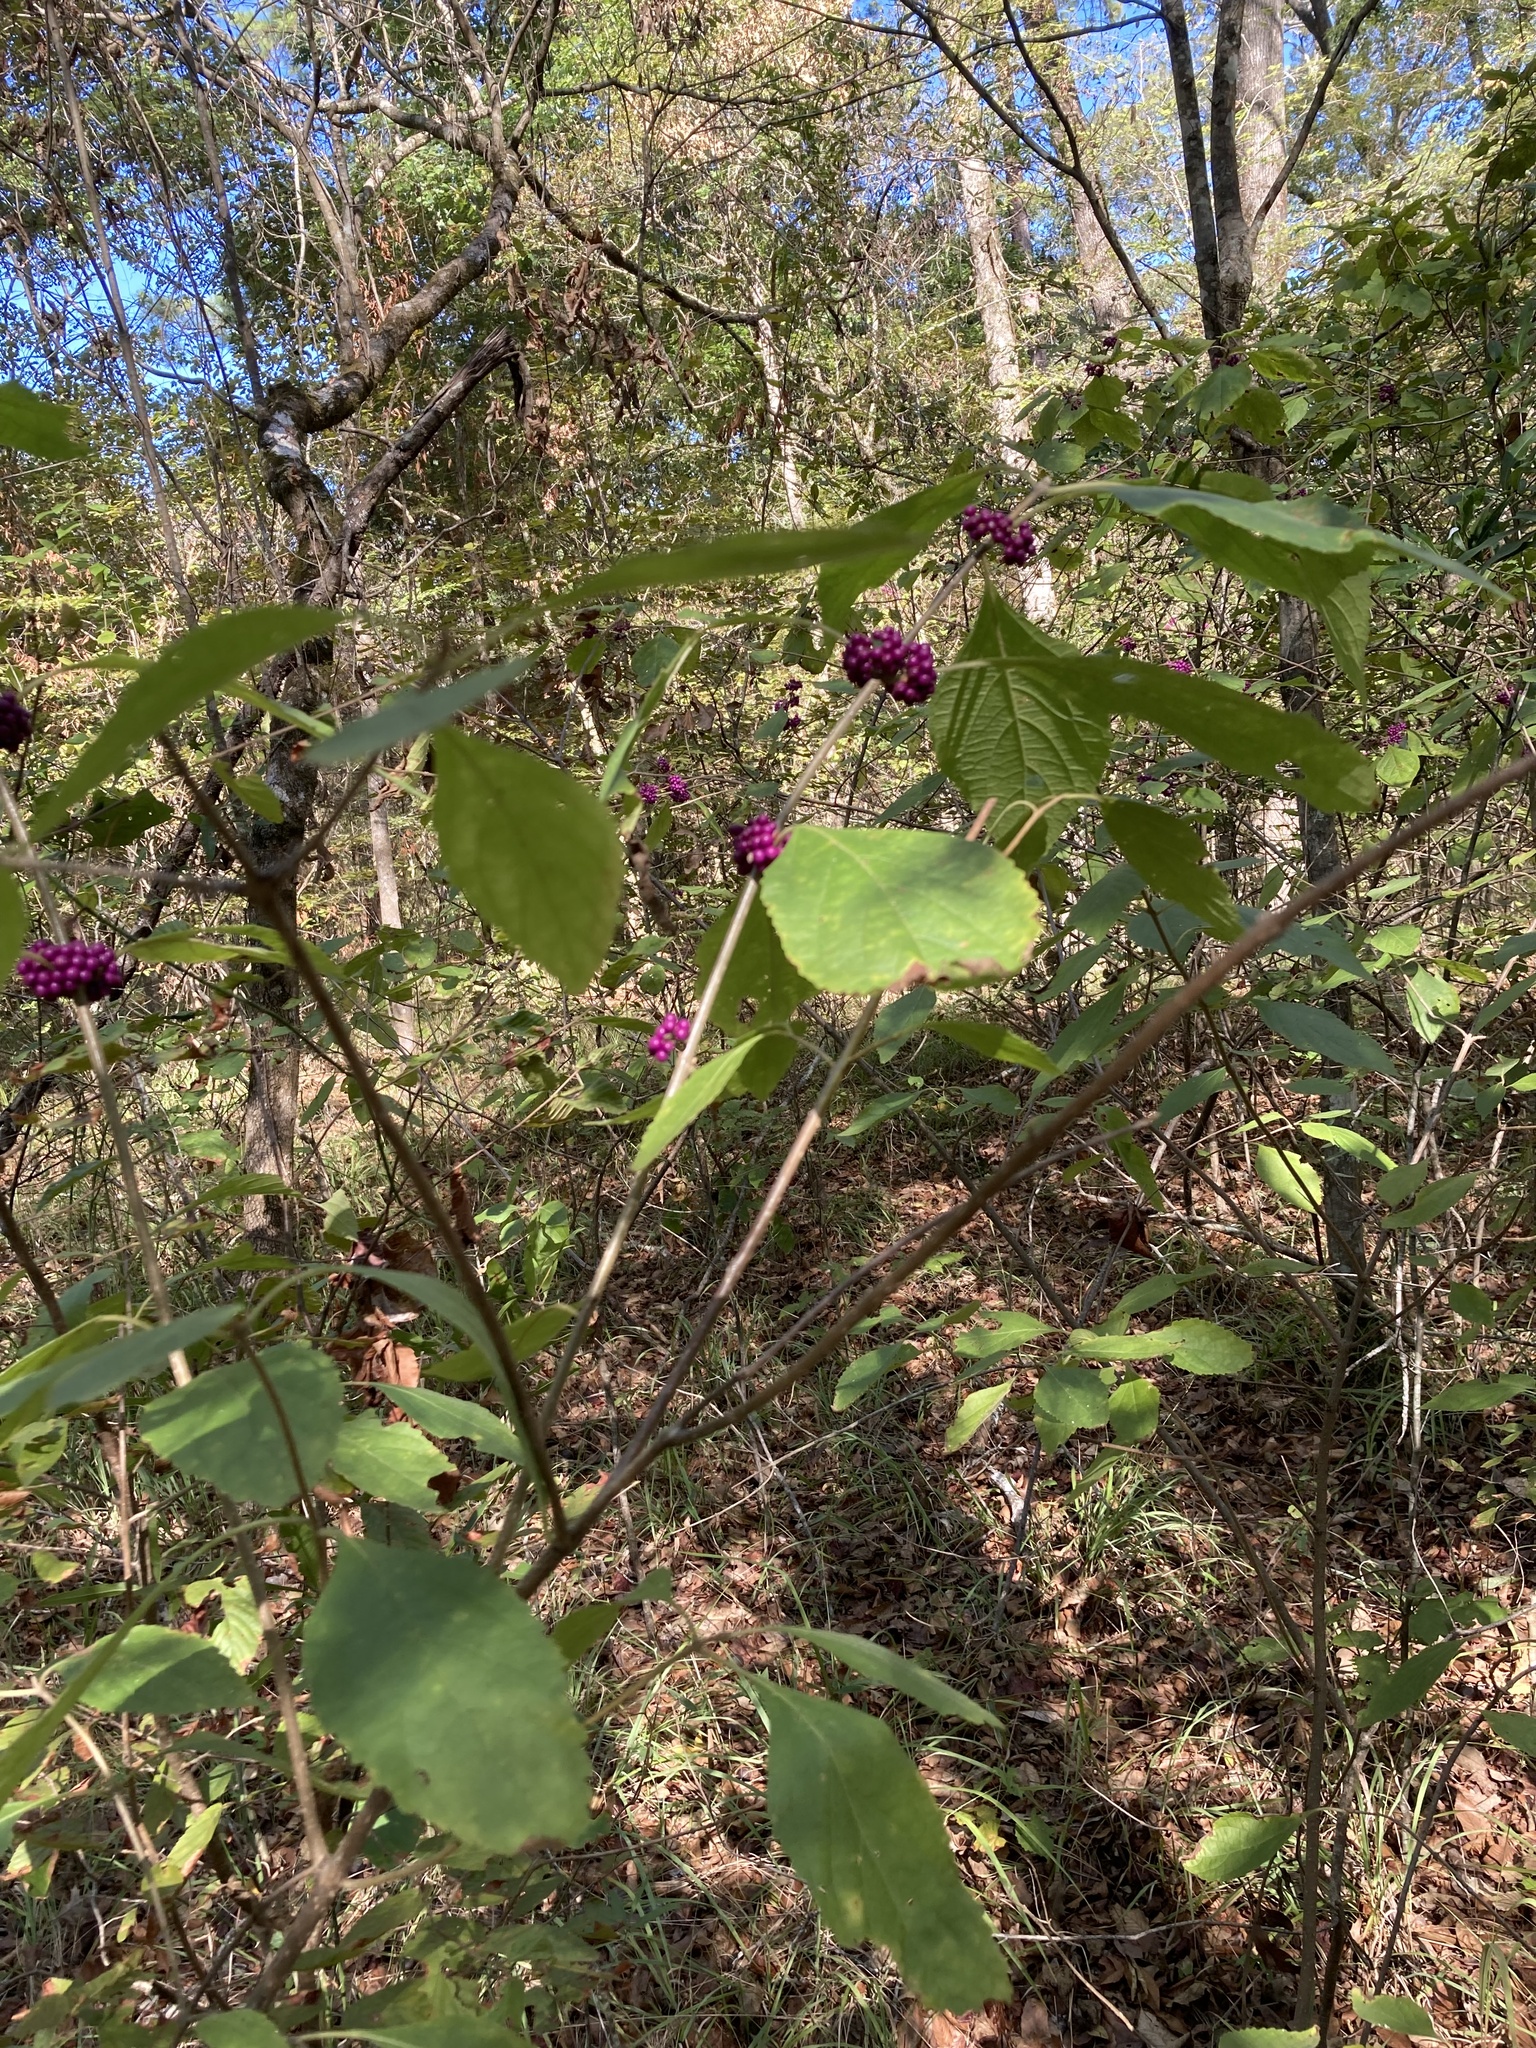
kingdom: Plantae
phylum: Tracheophyta
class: Magnoliopsida
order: Lamiales
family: Lamiaceae
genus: Callicarpa
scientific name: Callicarpa americana
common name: American beautyberry
